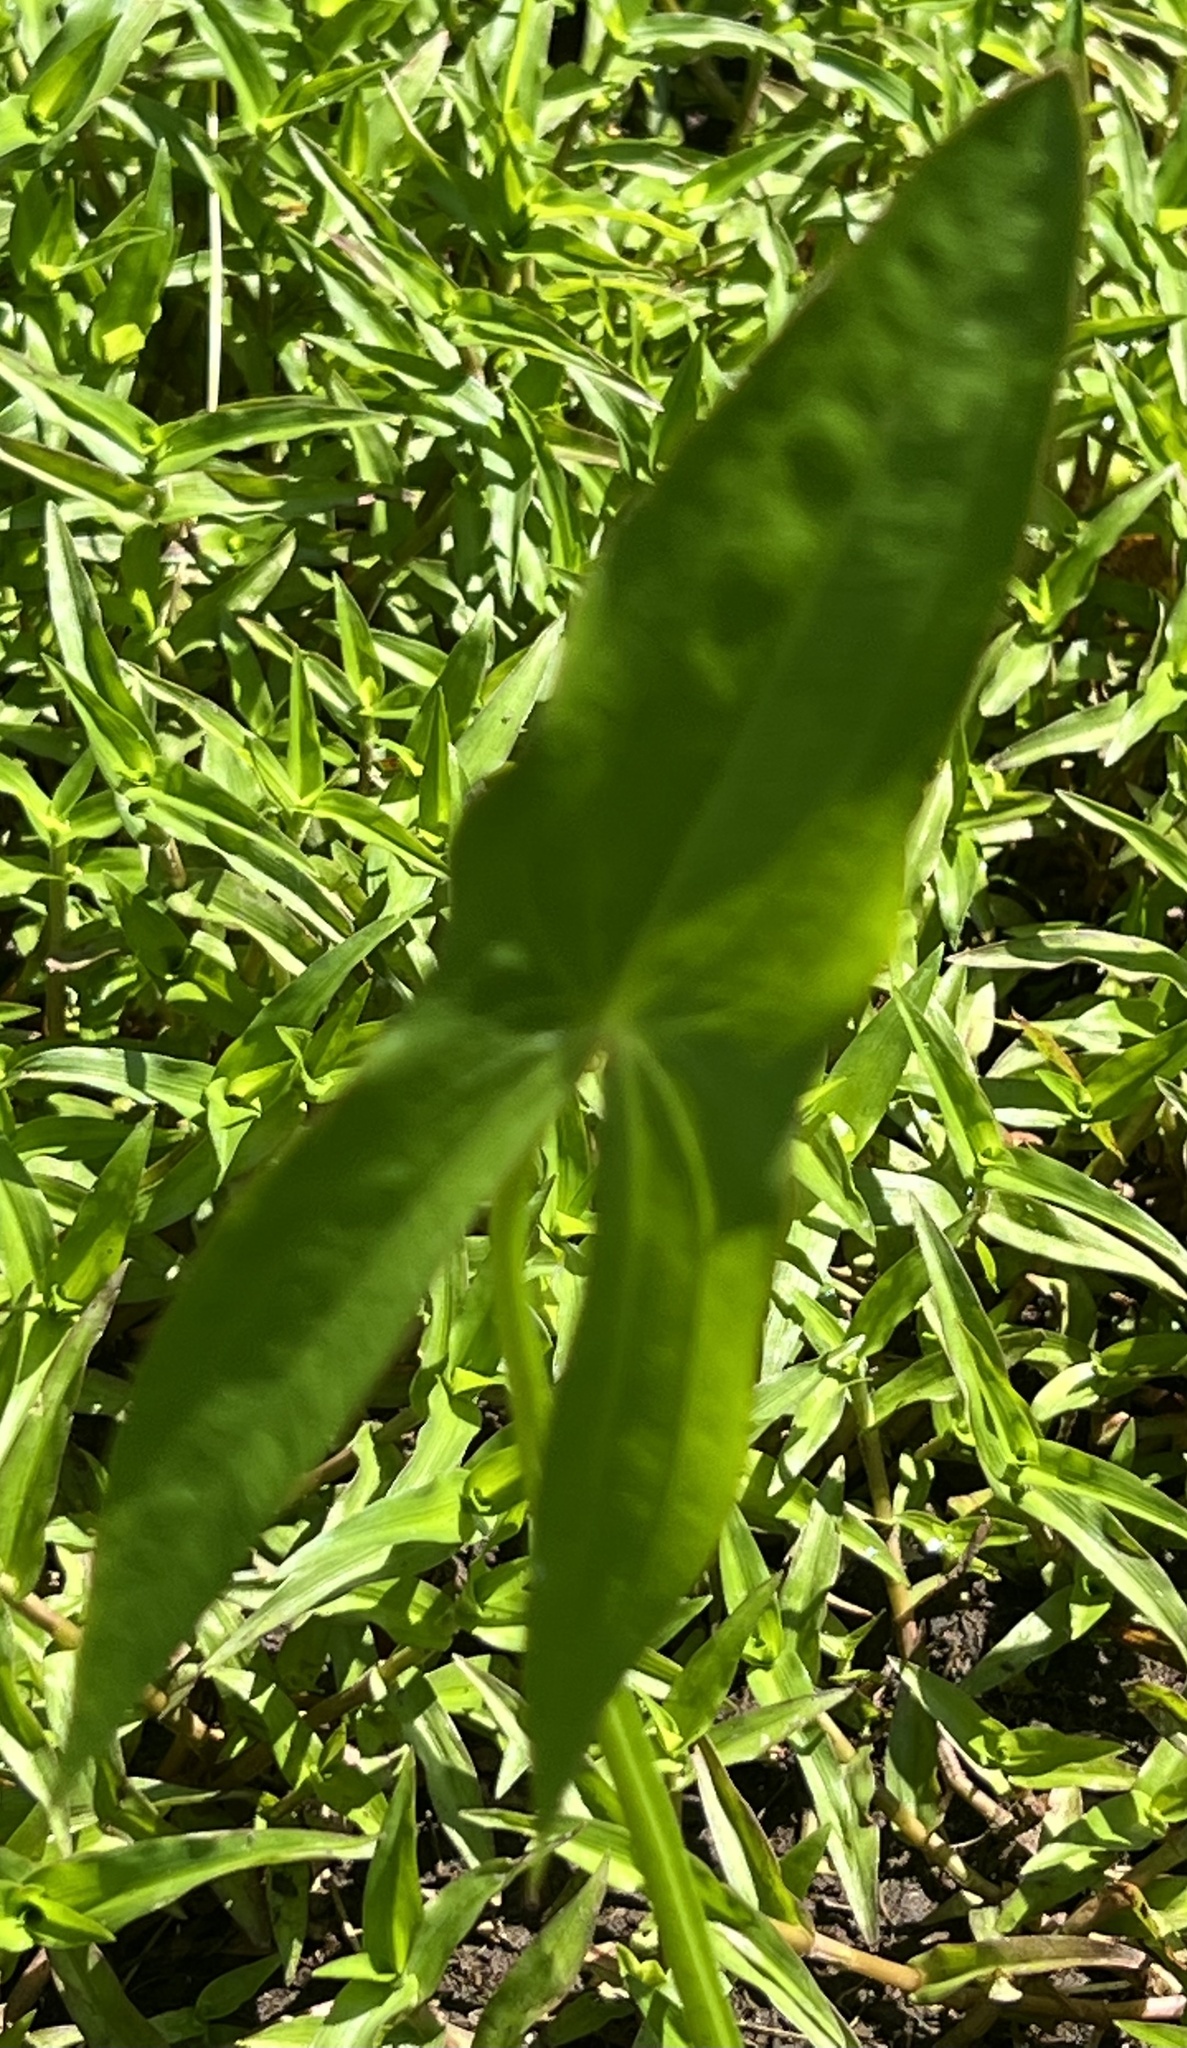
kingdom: Plantae
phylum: Tracheophyta
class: Liliopsida
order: Alismatales
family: Alismataceae
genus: Sagittaria
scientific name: Sagittaria latifolia
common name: Duck-potato
